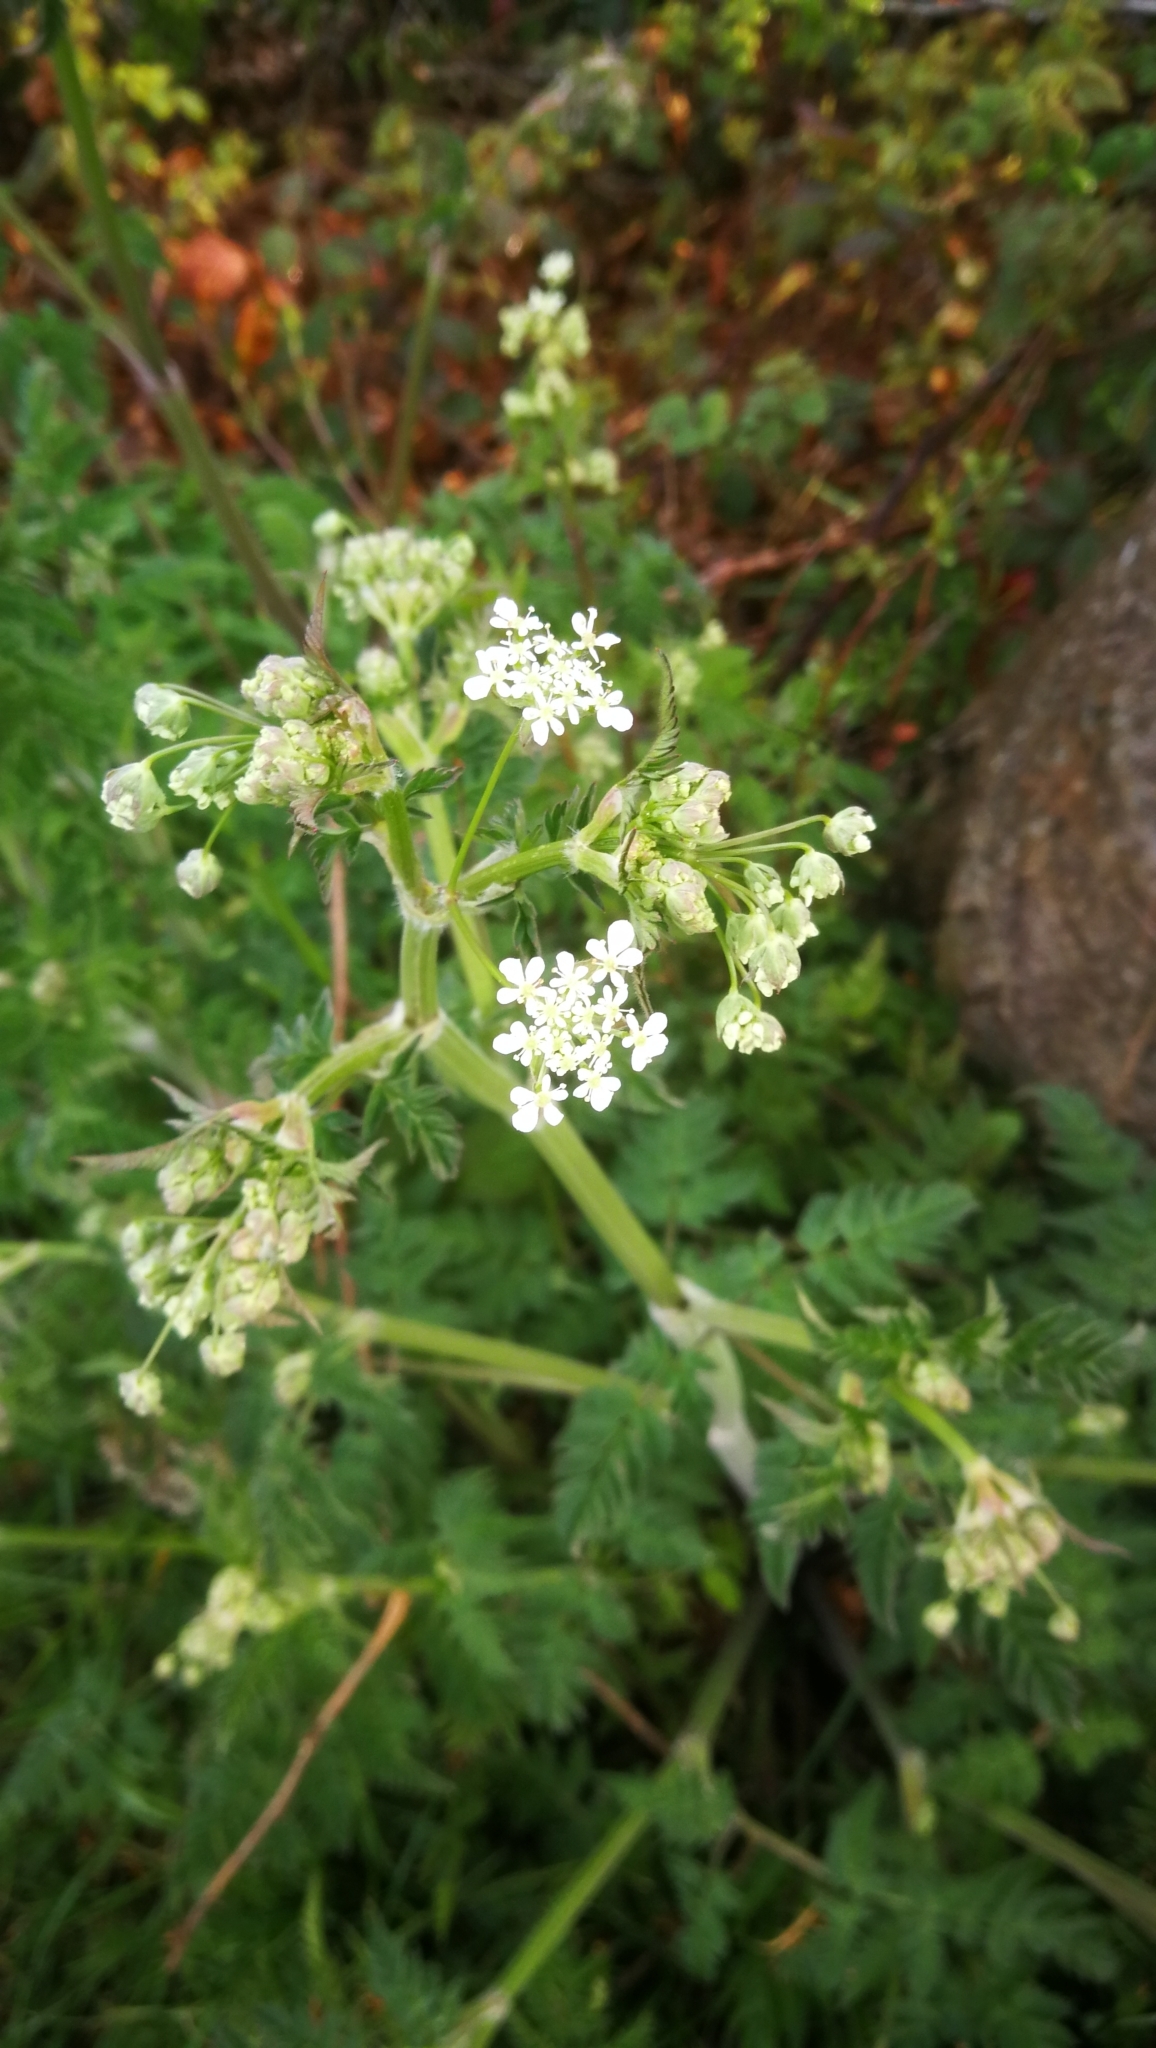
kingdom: Plantae
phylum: Tracheophyta
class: Magnoliopsida
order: Apiales
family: Apiaceae
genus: Anthriscus
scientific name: Anthriscus sylvestris
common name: Cow parsley
